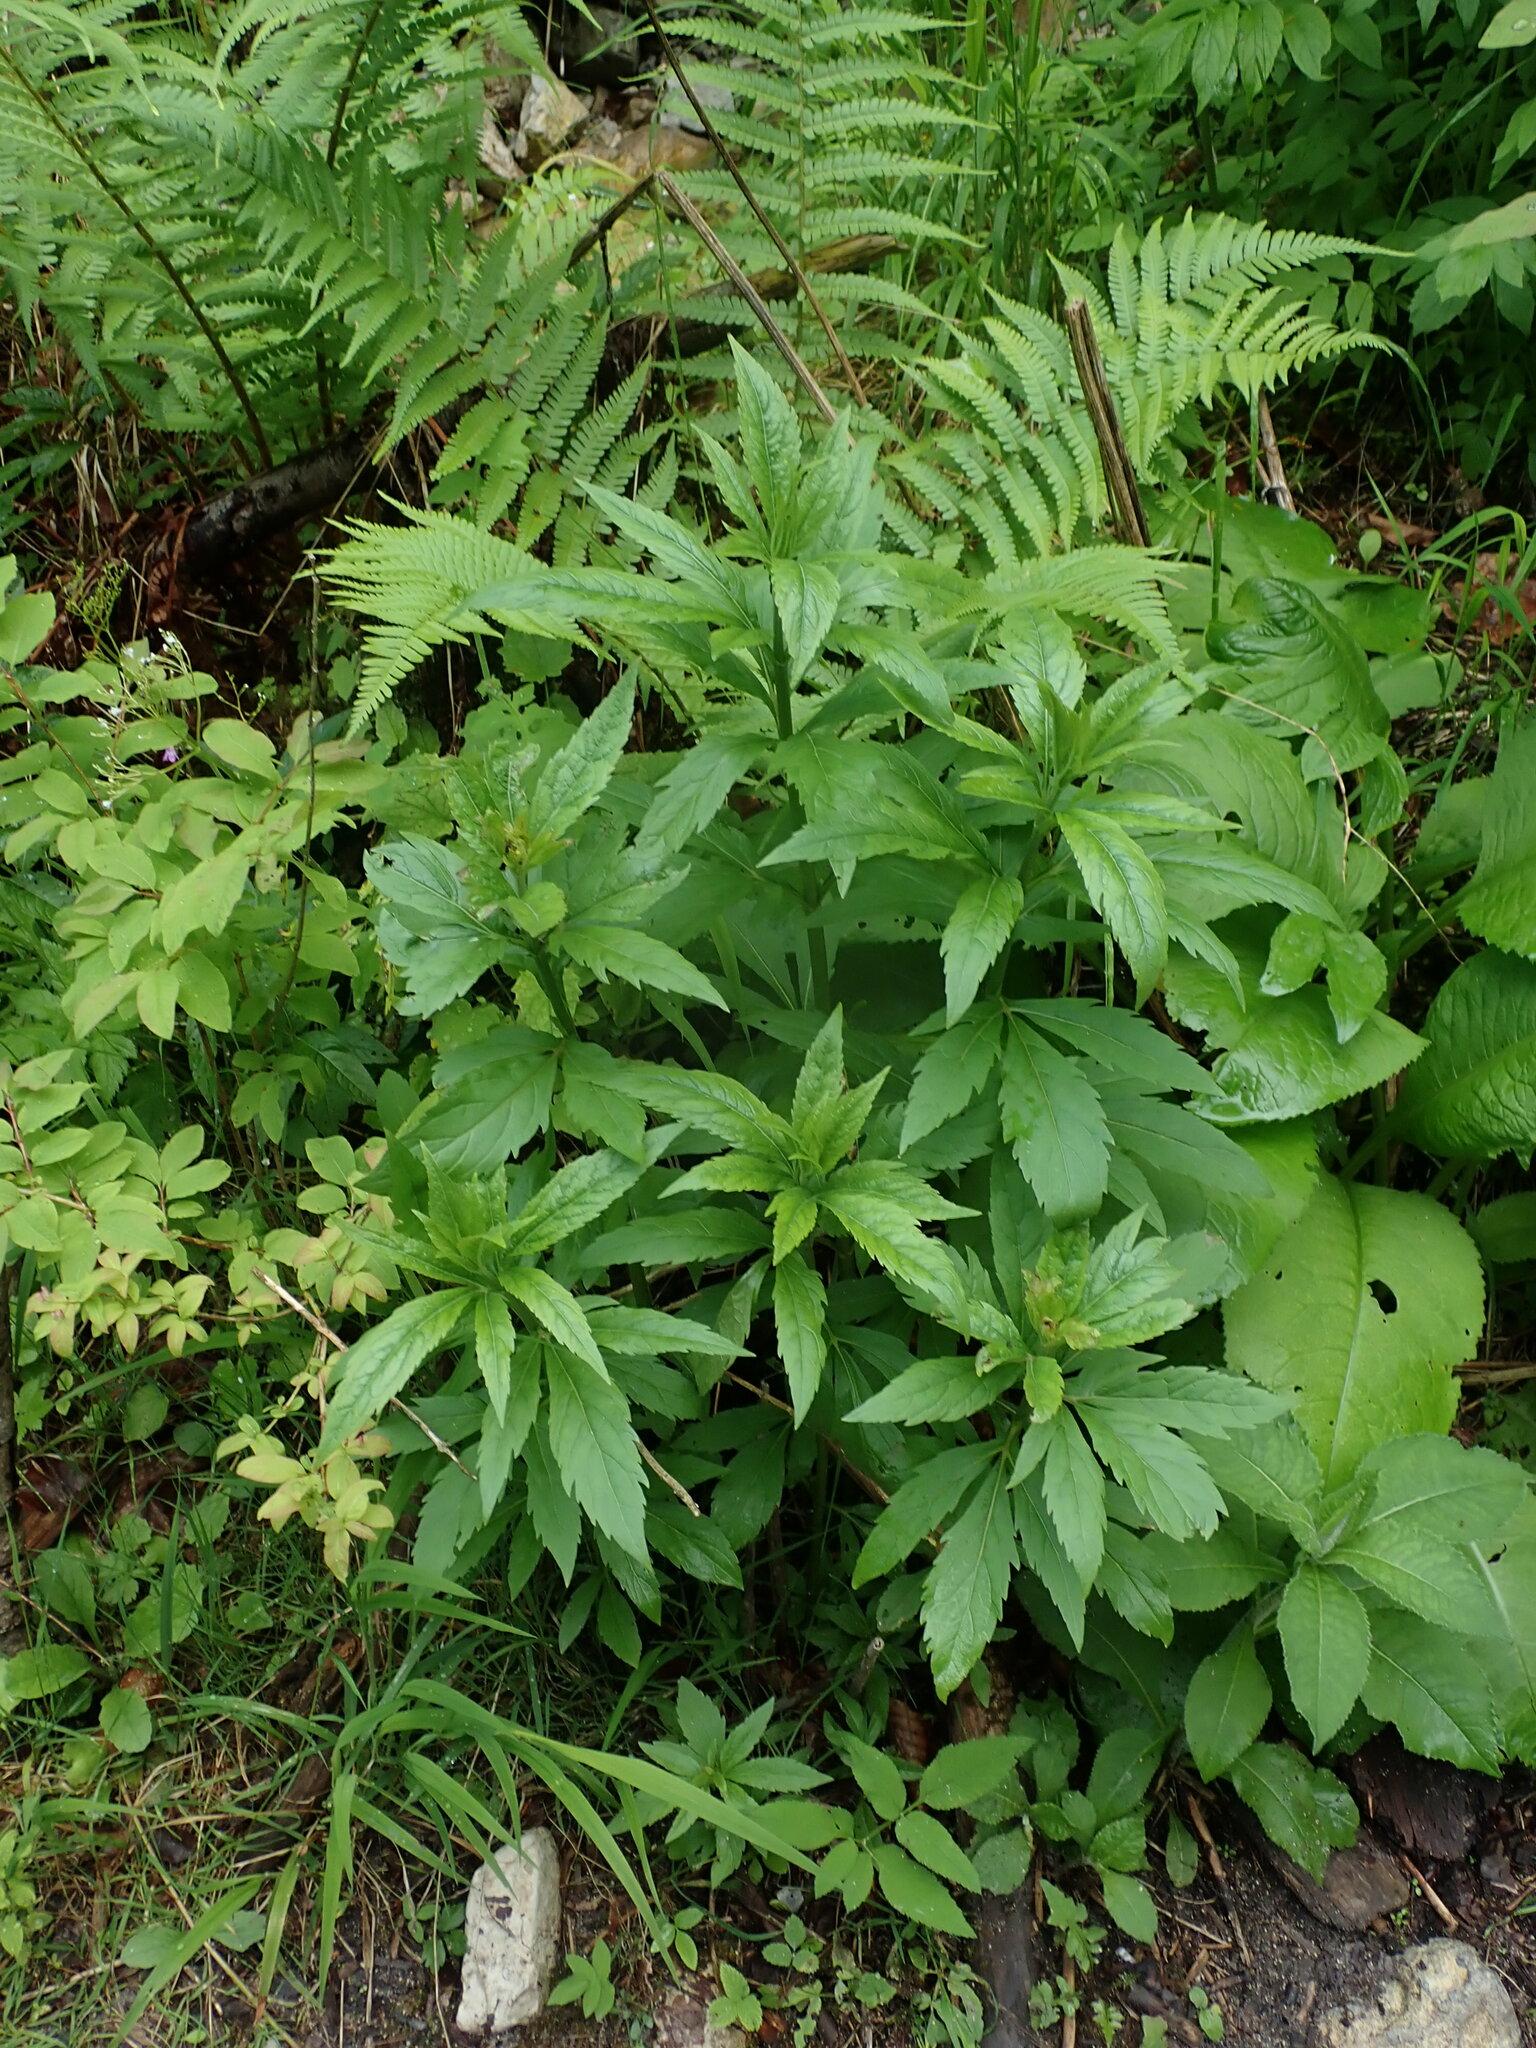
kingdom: Plantae
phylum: Tracheophyta
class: Magnoliopsida
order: Asterales
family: Asteraceae
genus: Eupatorium
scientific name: Eupatorium cannabinum
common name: Hemp-agrimony
